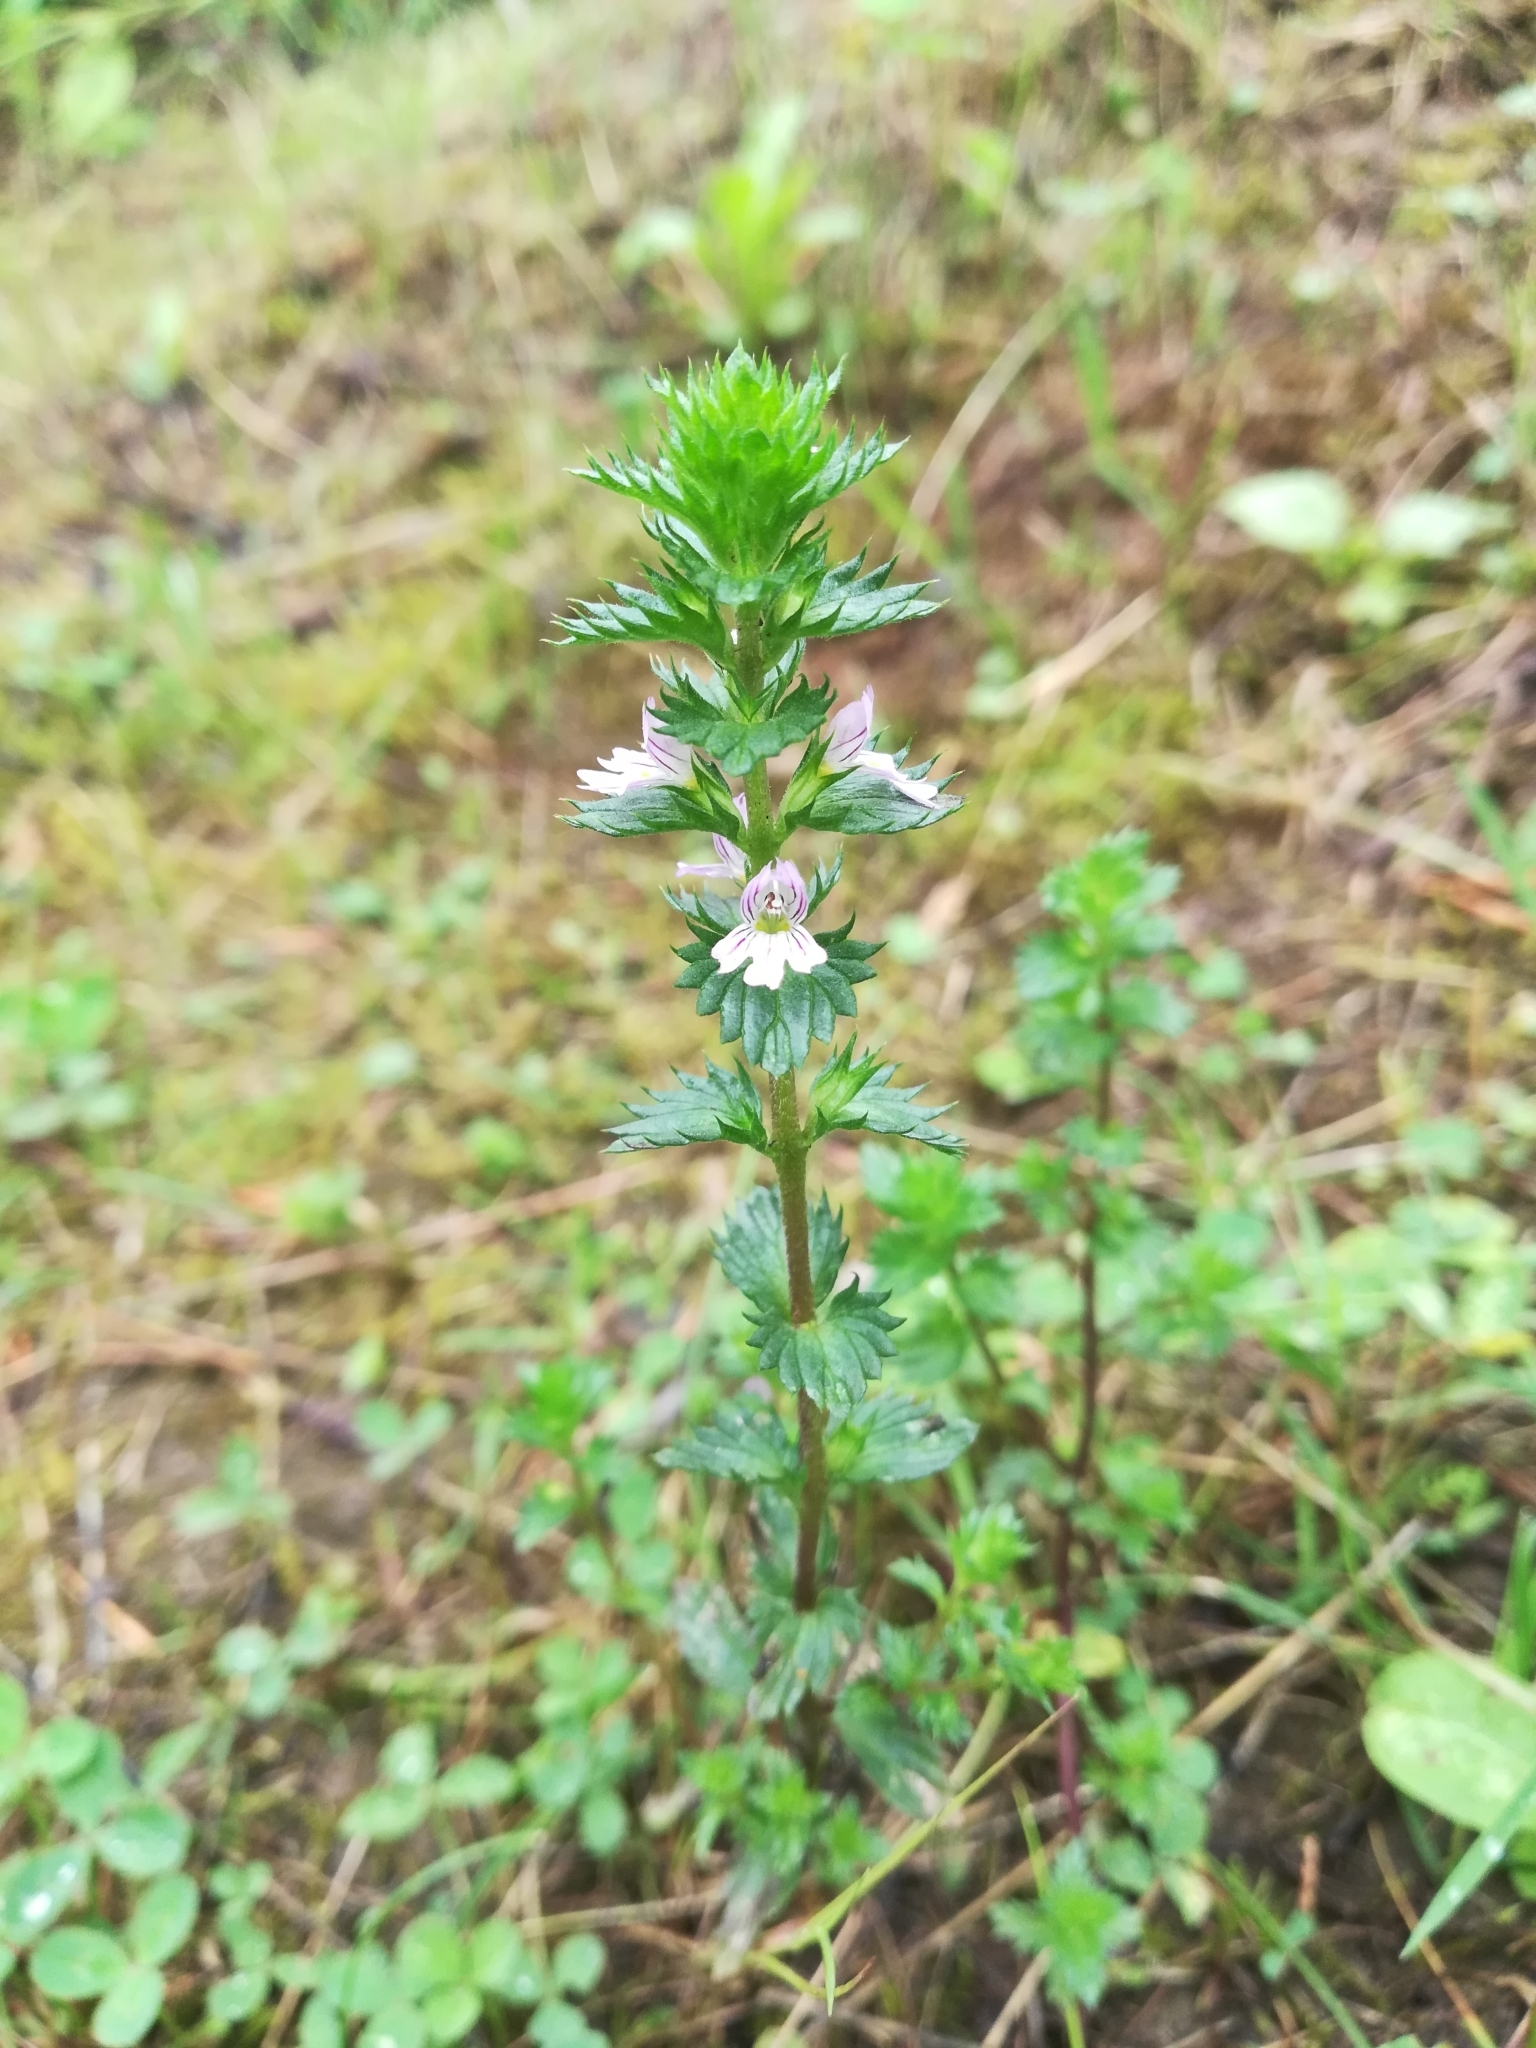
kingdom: Plantae
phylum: Tracheophyta
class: Magnoliopsida
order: Lamiales
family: Orobanchaceae
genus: Euphrasia
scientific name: Euphrasia stricta
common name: Drug eyebright
